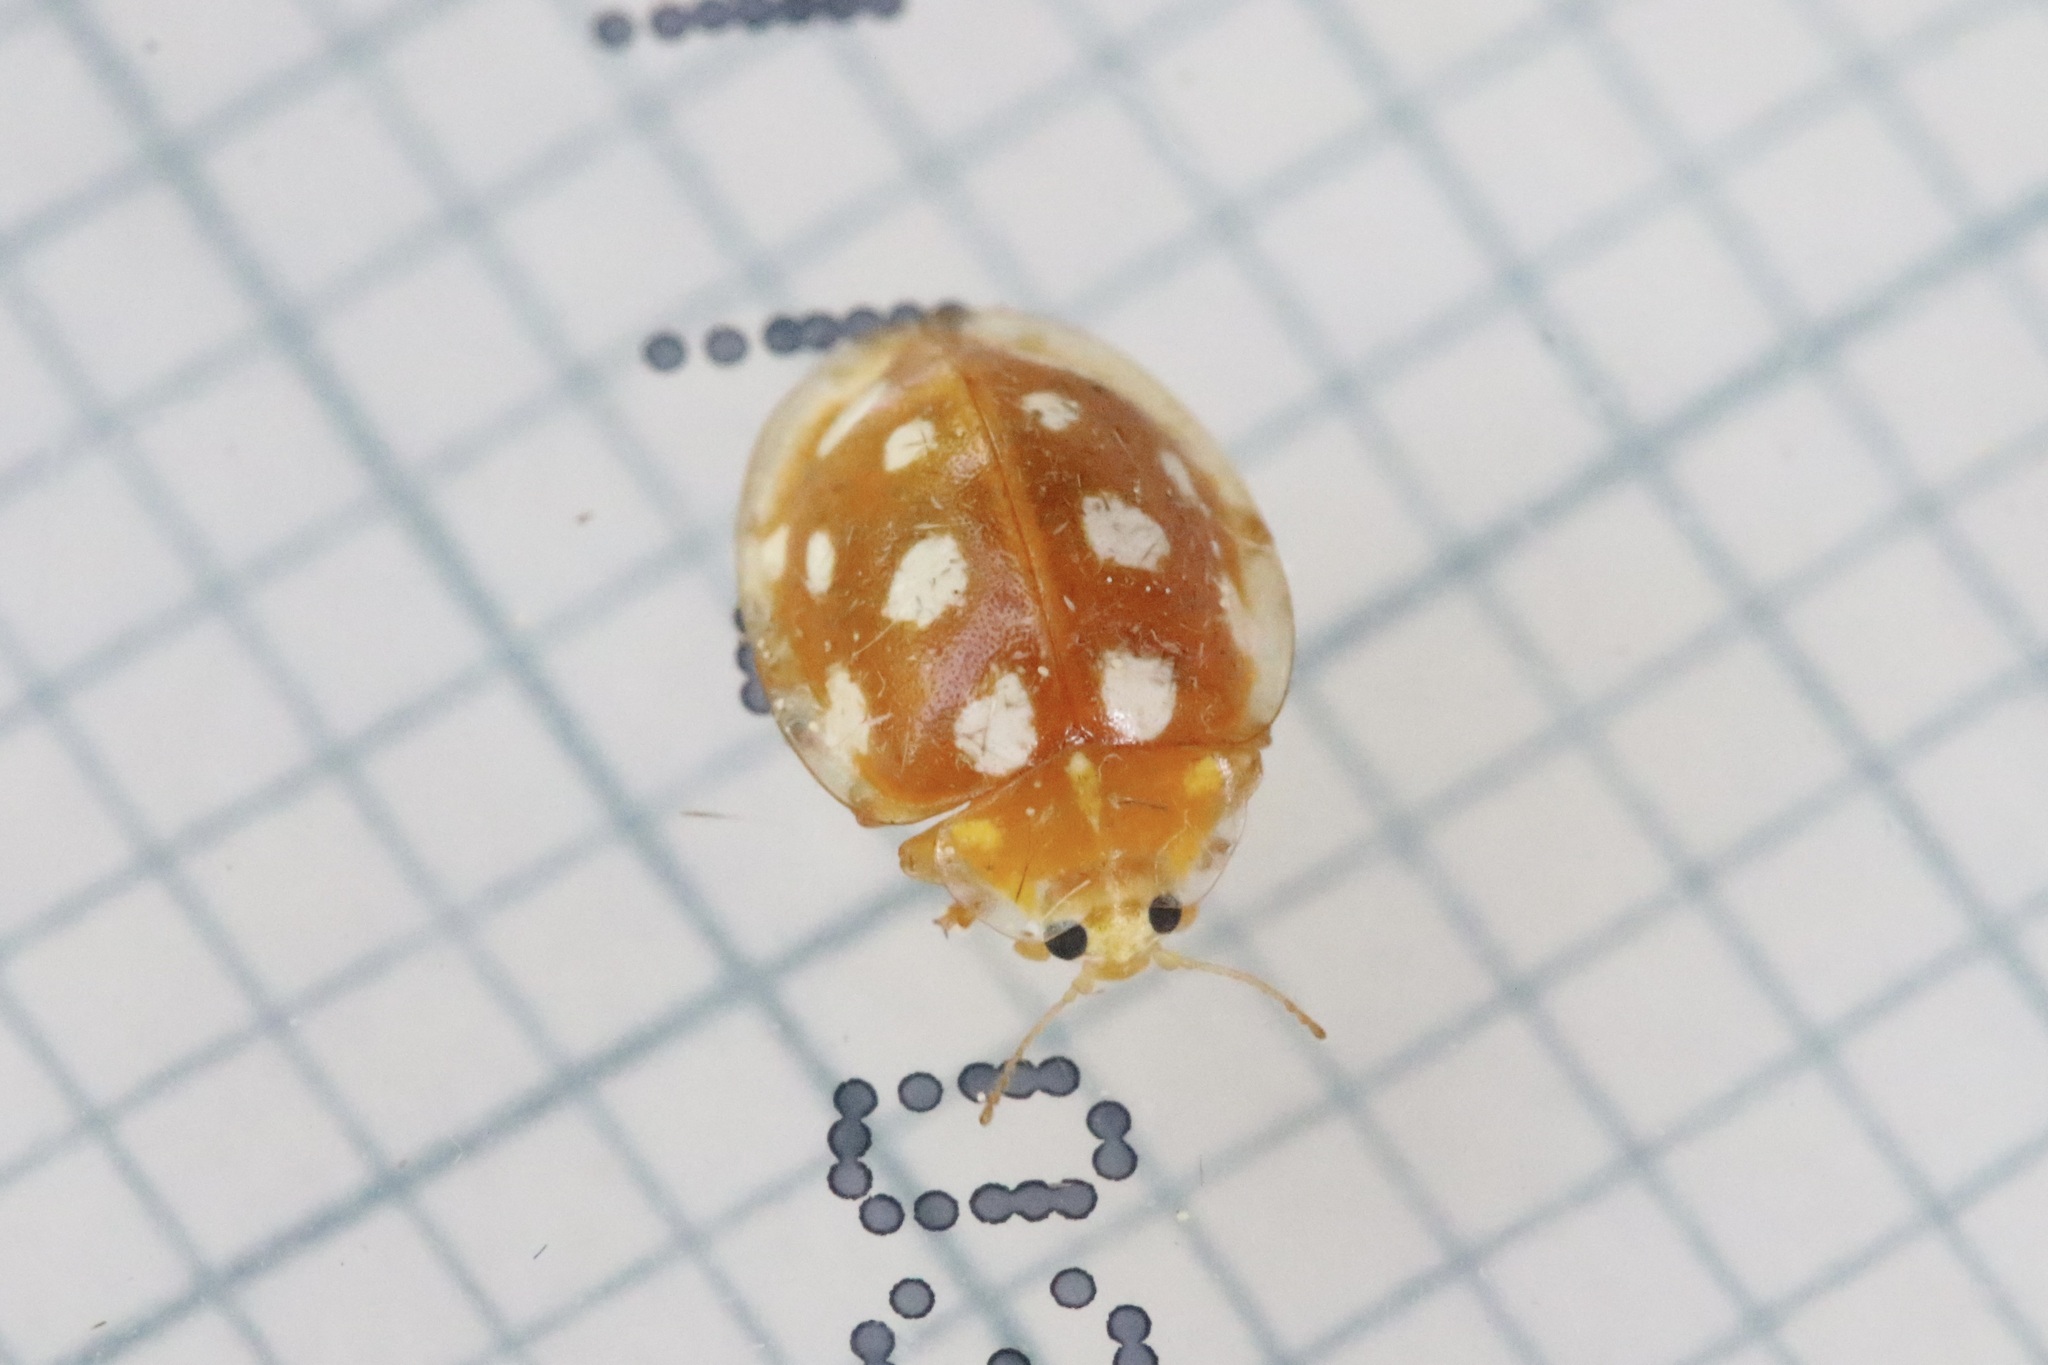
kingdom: Animalia
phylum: Arthropoda
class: Insecta
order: Coleoptera
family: Coccinellidae
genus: Halyzia
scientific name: Halyzia sedecimguttata
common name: Orange ladybird
